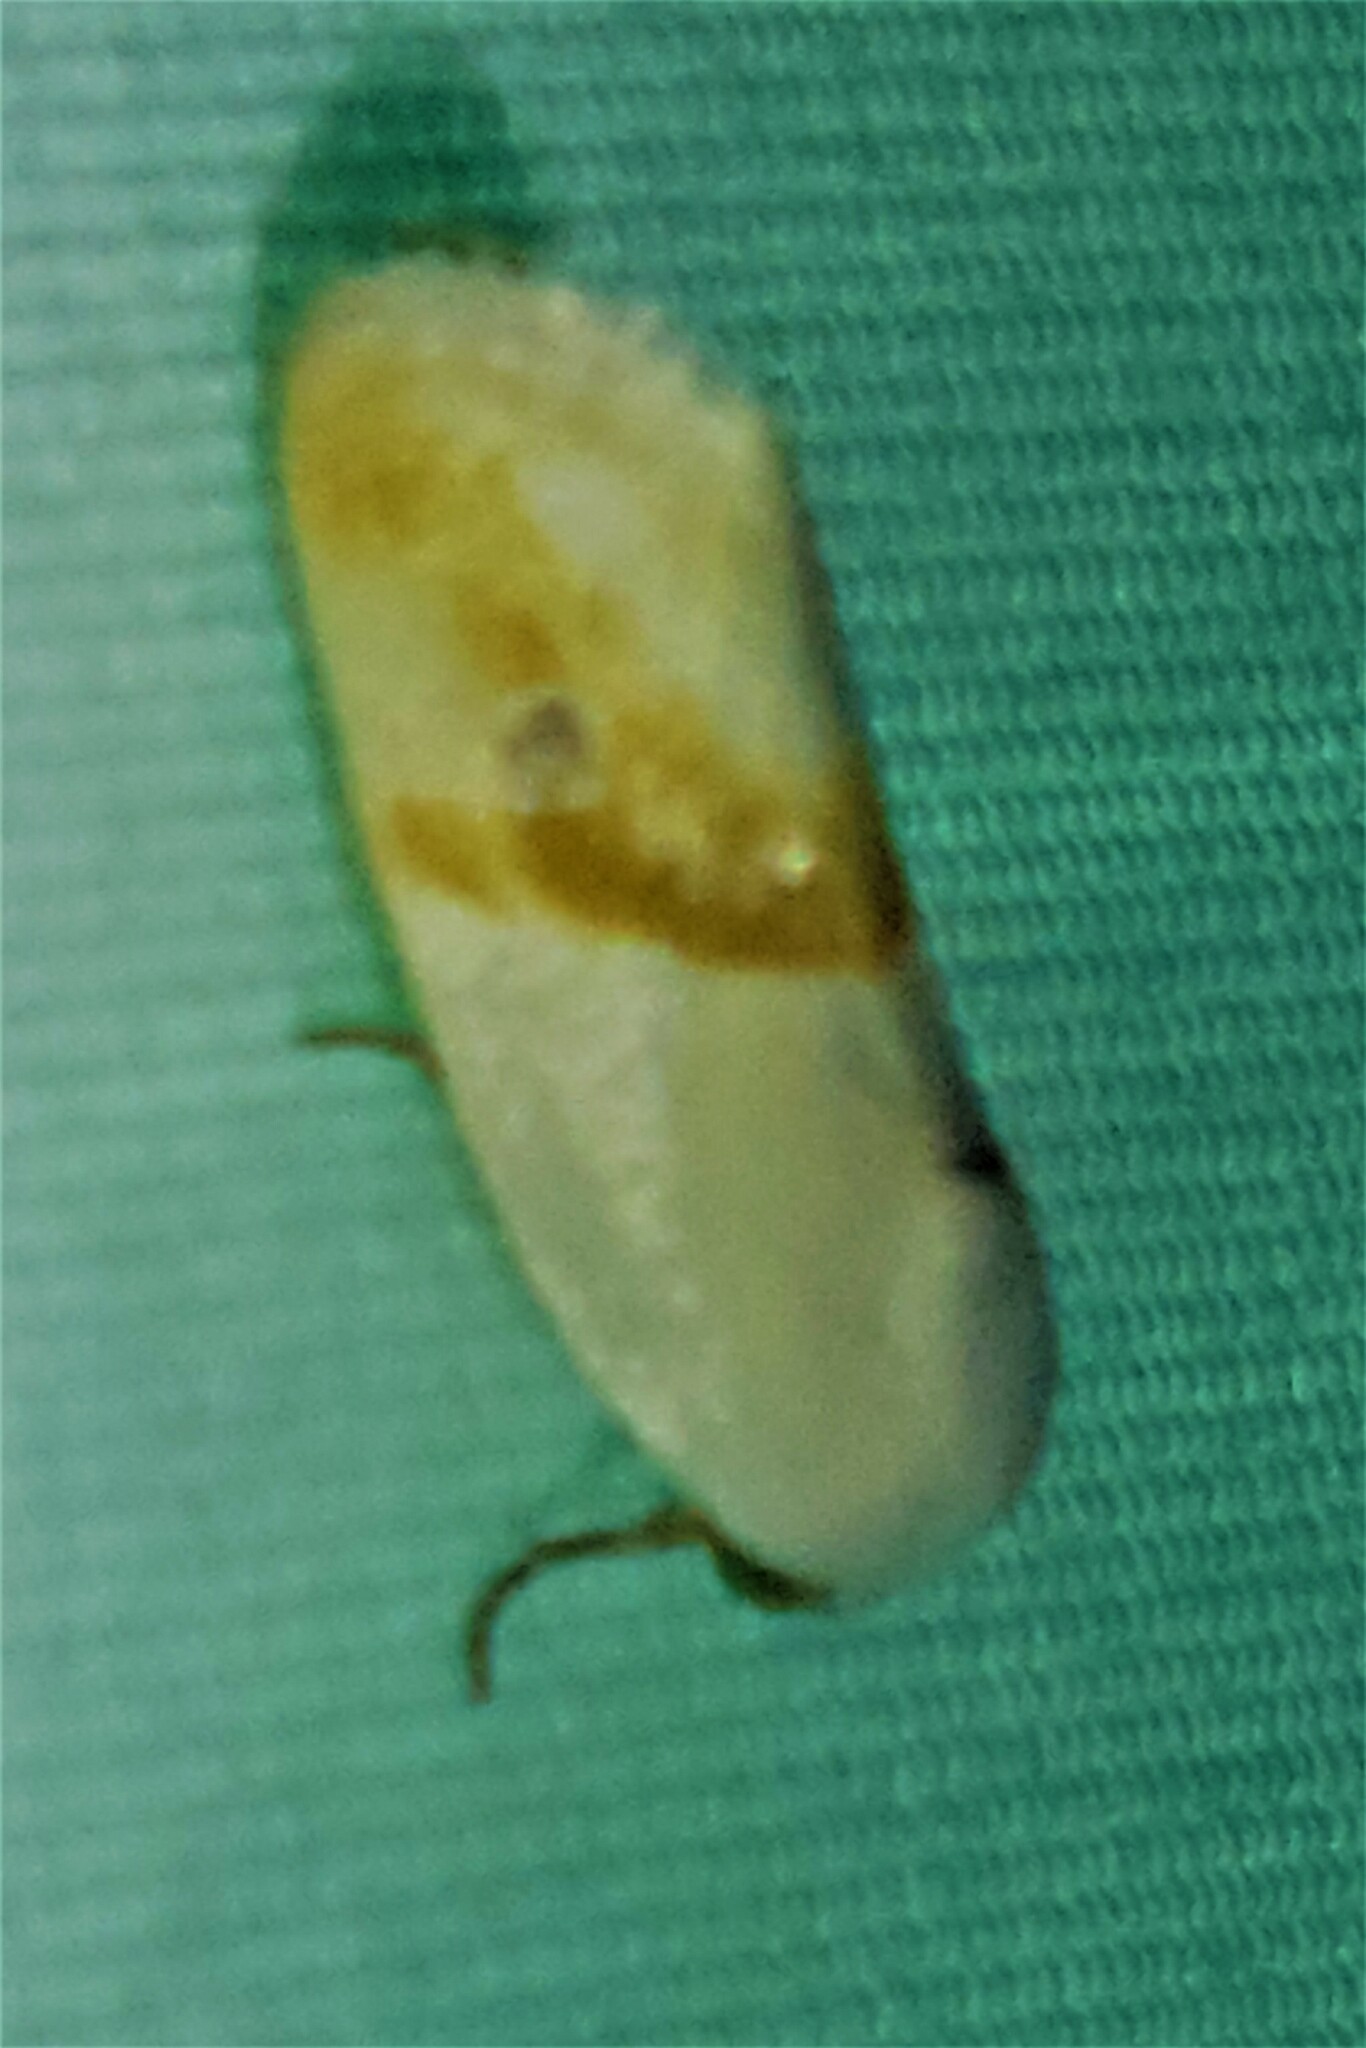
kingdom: Animalia
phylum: Arthropoda
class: Insecta
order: Lepidoptera
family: Noctuidae
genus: Acontia
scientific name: Acontia virginalis
